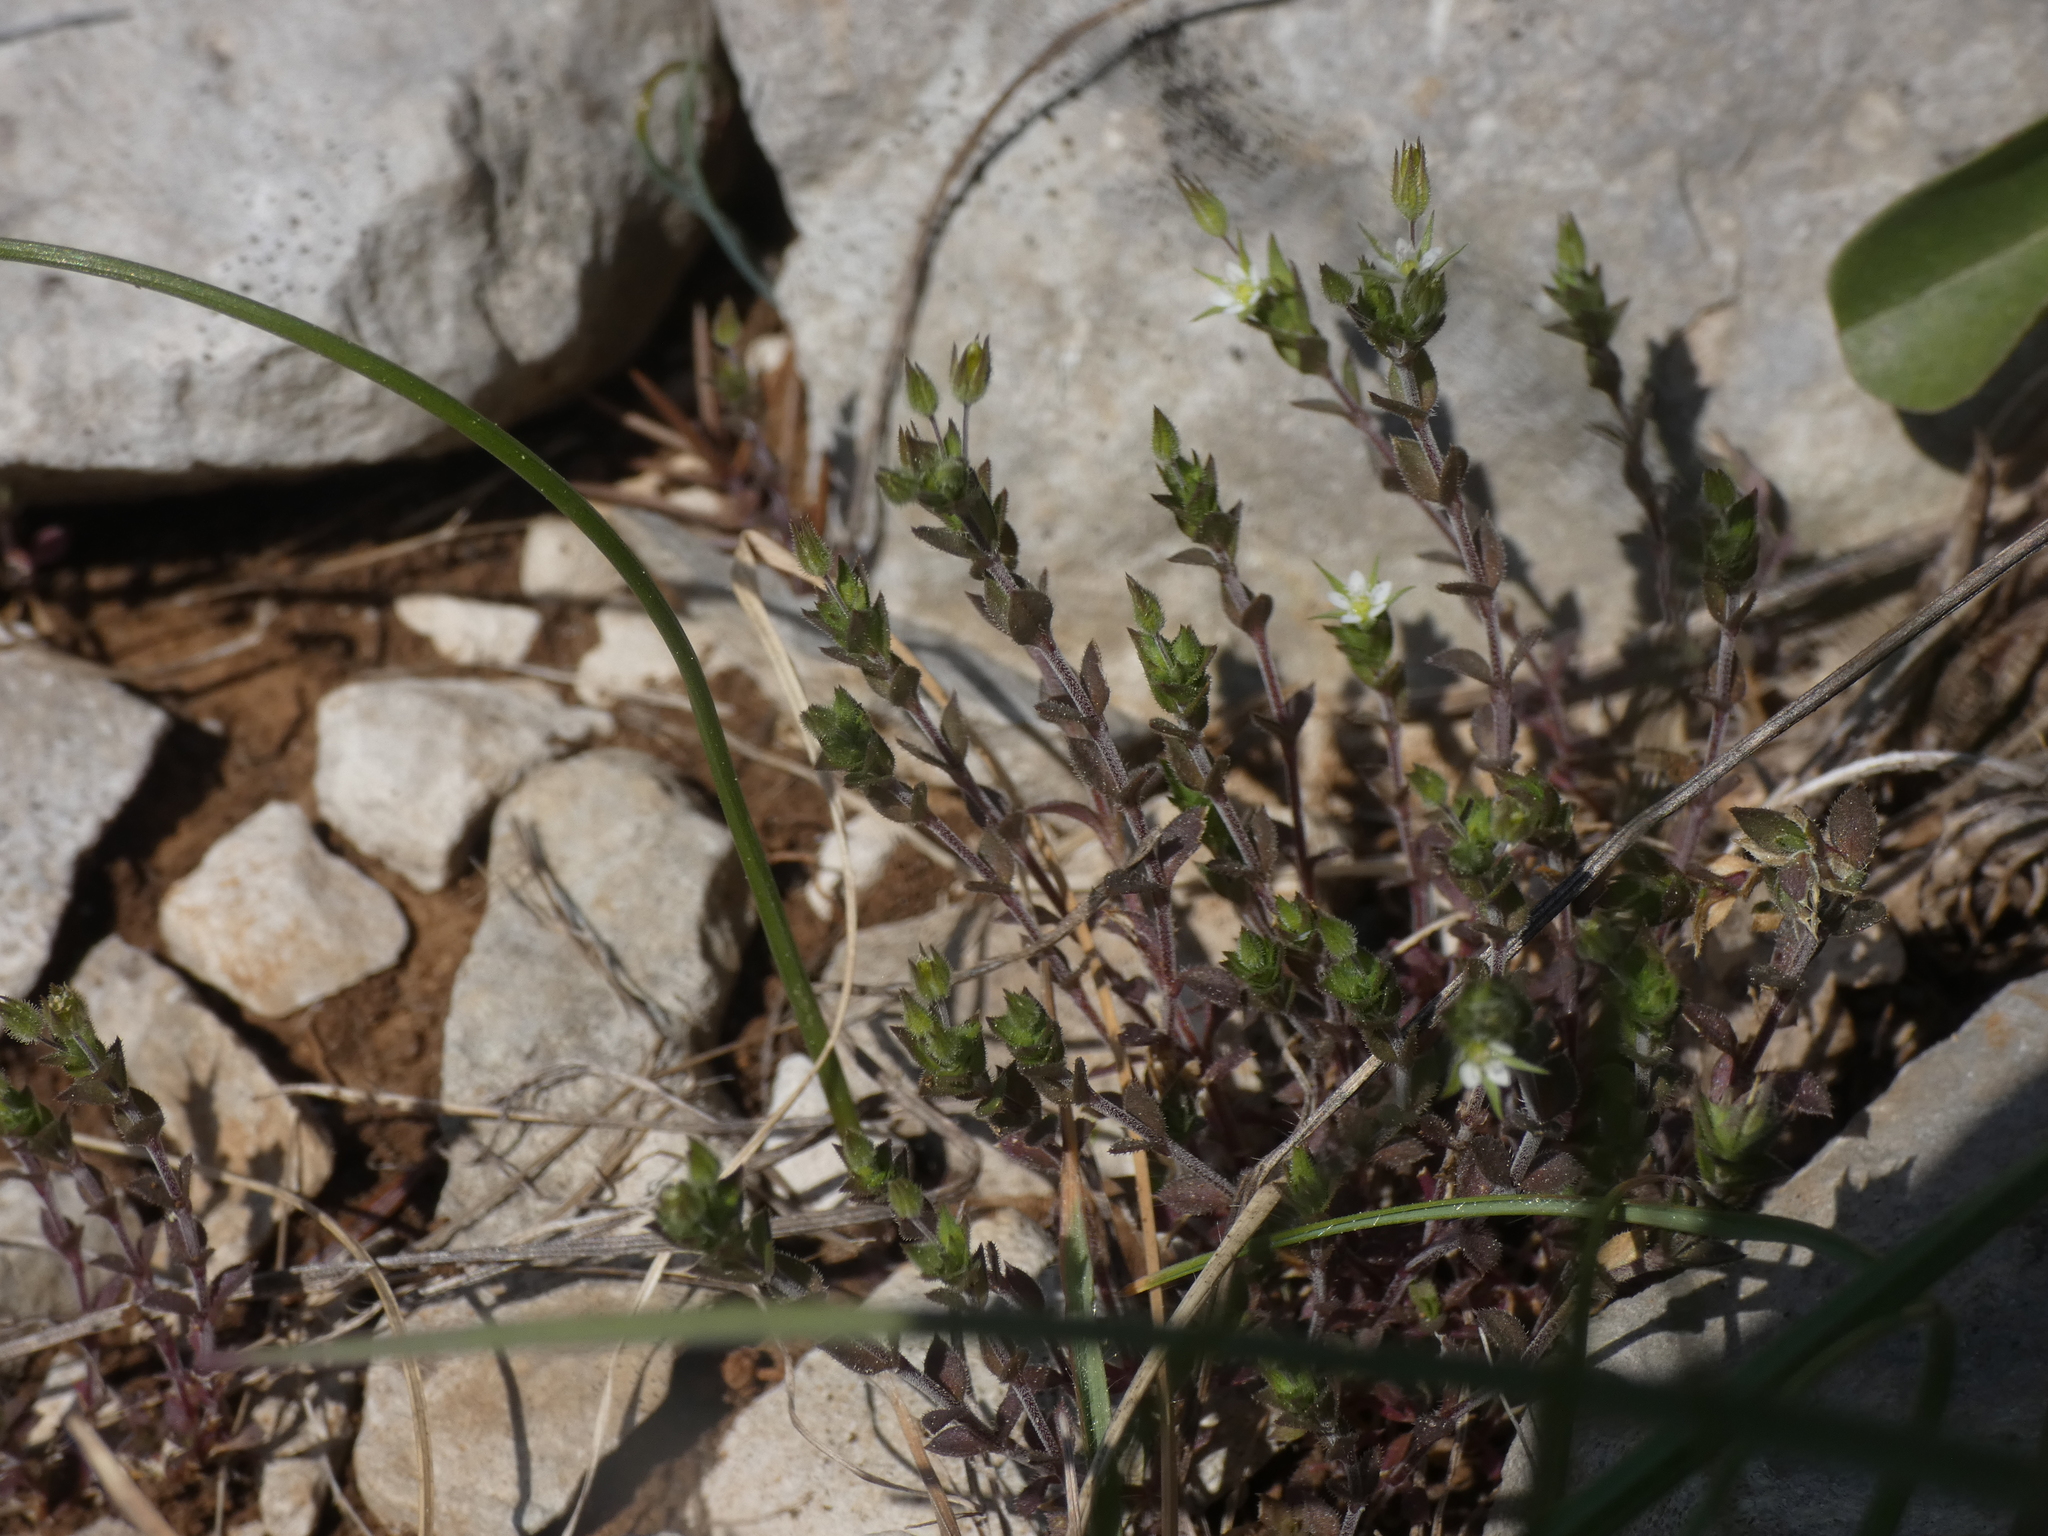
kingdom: Plantae
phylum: Tracheophyta
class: Magnoliopsida
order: Caryophyllales
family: Caryophyllaceae
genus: Arenaria
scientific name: Arenaria serpyllifolia
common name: Thyme-leaved sandwort
